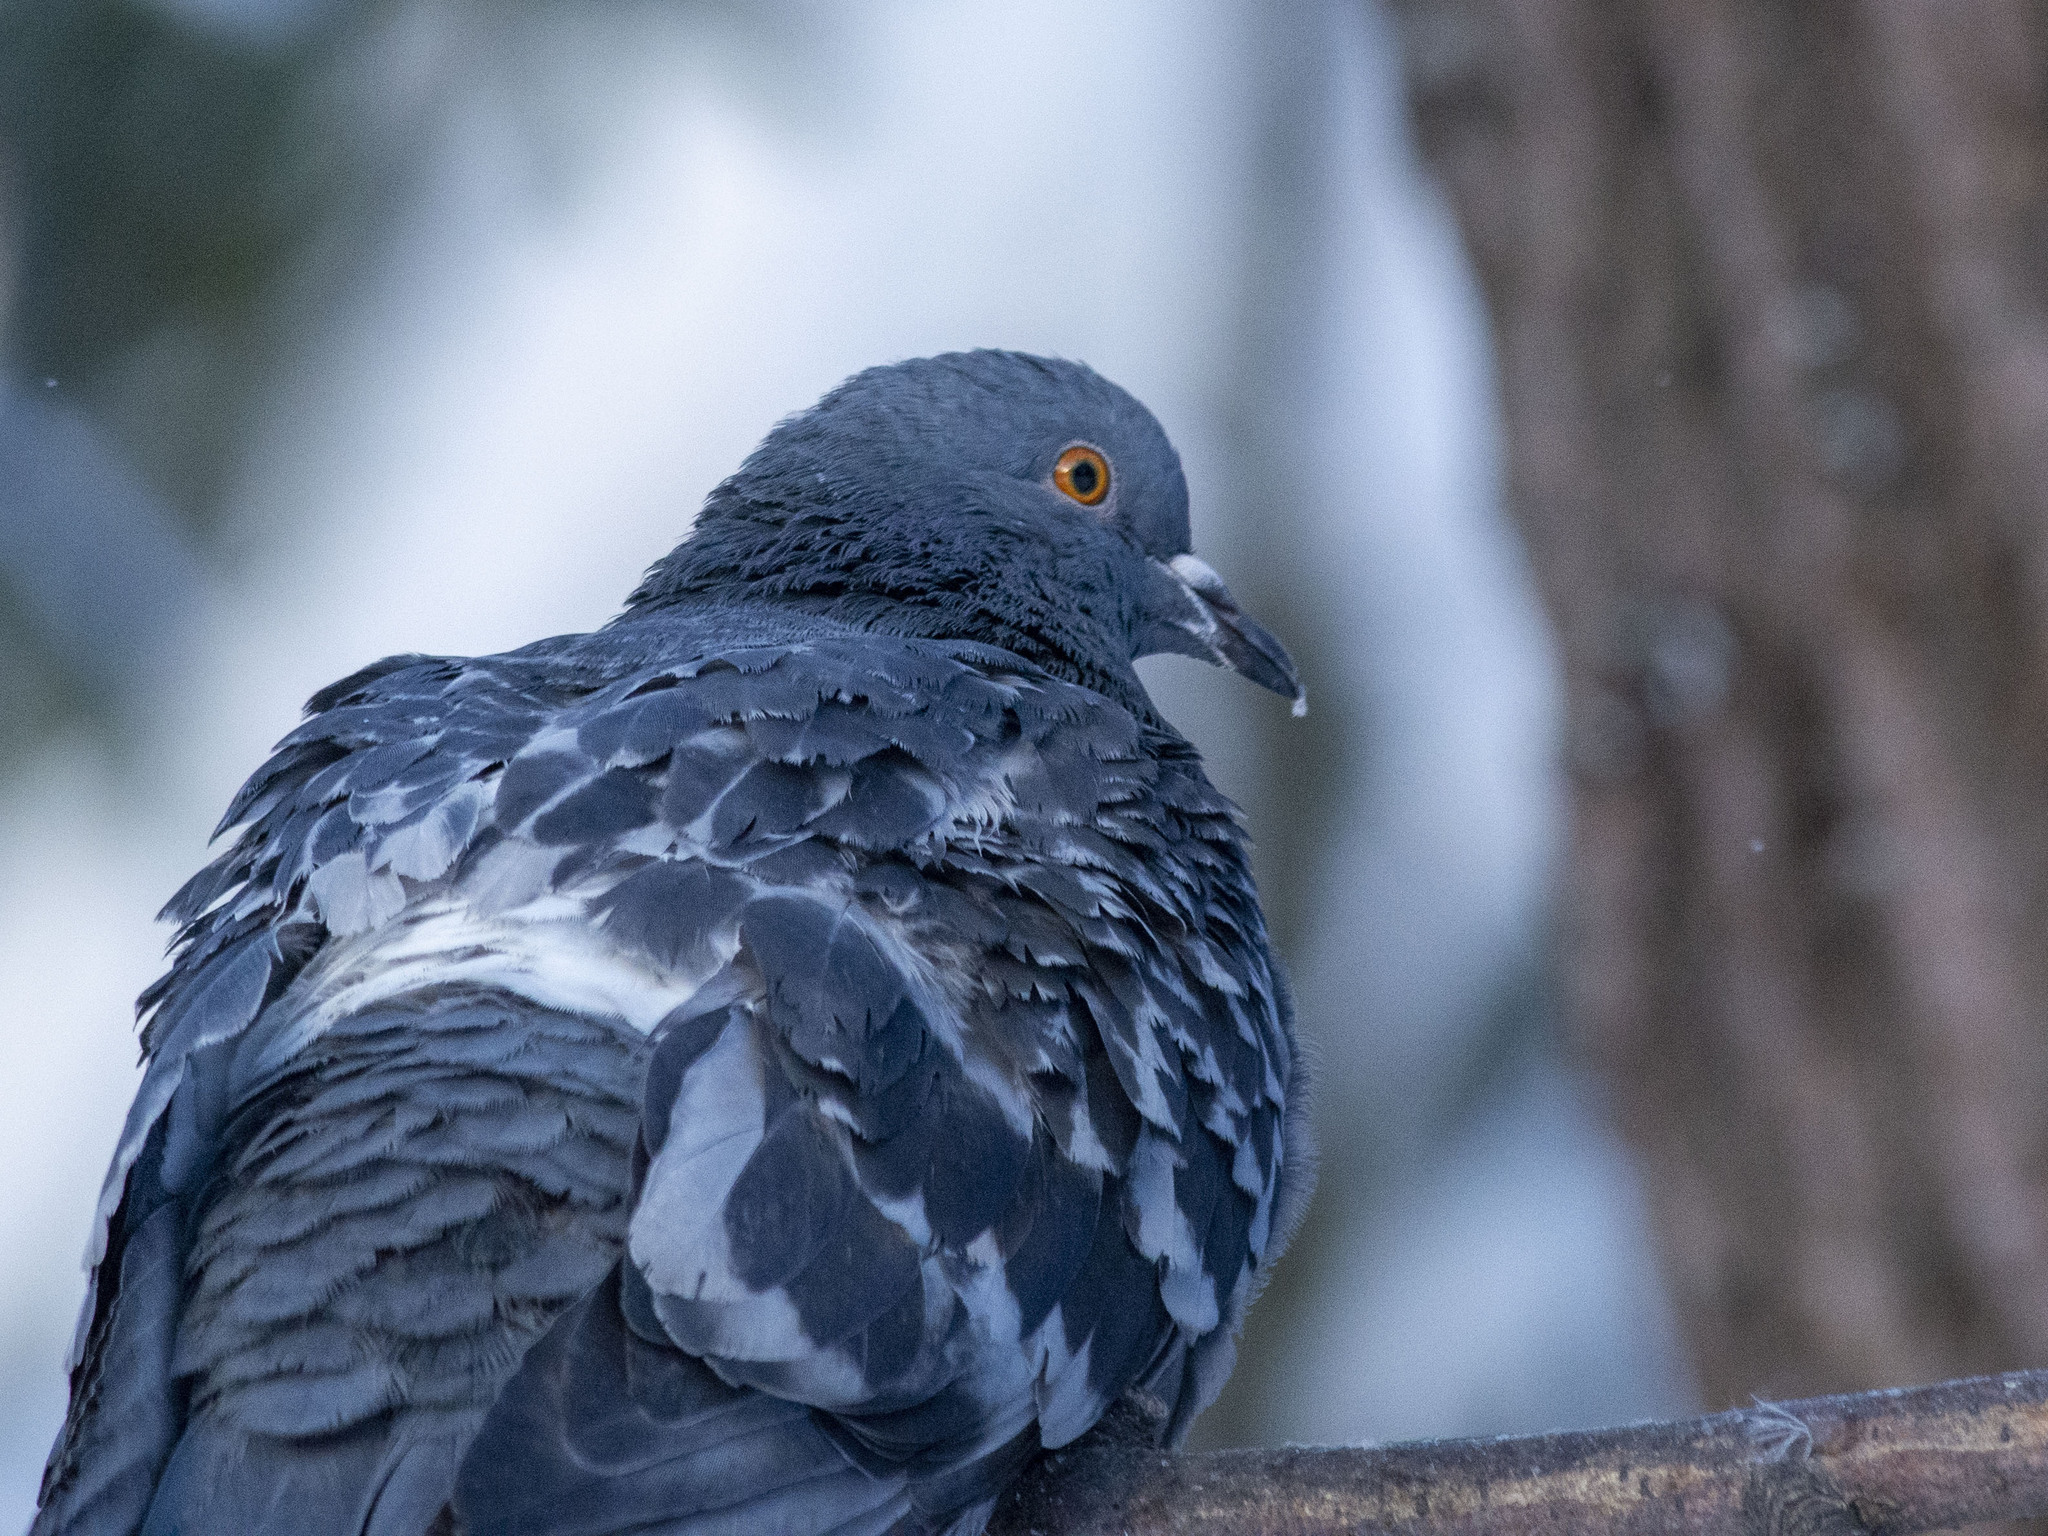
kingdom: Animalia
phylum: Chordata
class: Aves
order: Columbiformes
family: Columbidae
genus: Columba
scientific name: Columba livia
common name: Rock pigeon
